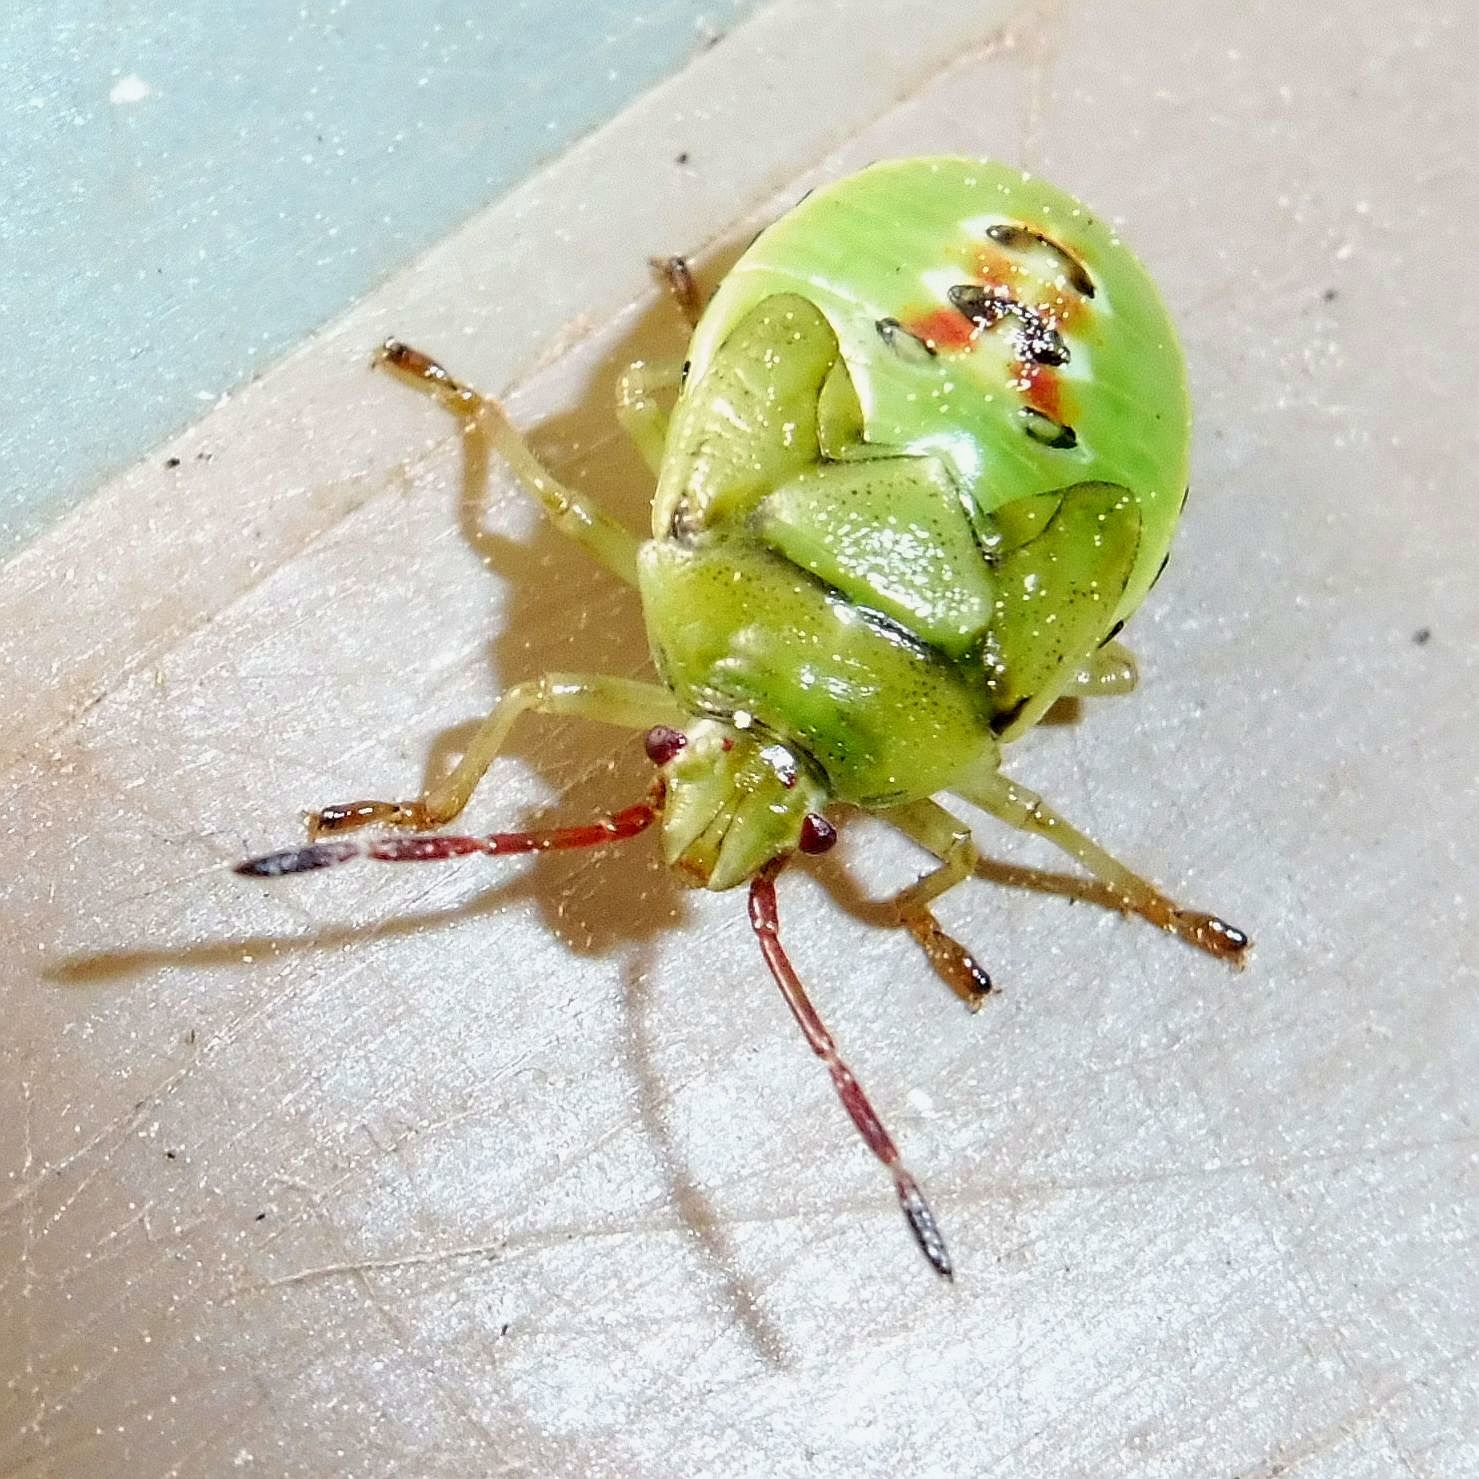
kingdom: Animalia
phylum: Arthropoda
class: Insecta
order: Hemiptera
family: Acanthosomatidae
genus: Elasmostethus
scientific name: Elasmostethus interstinctus
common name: Birch shieldbug
